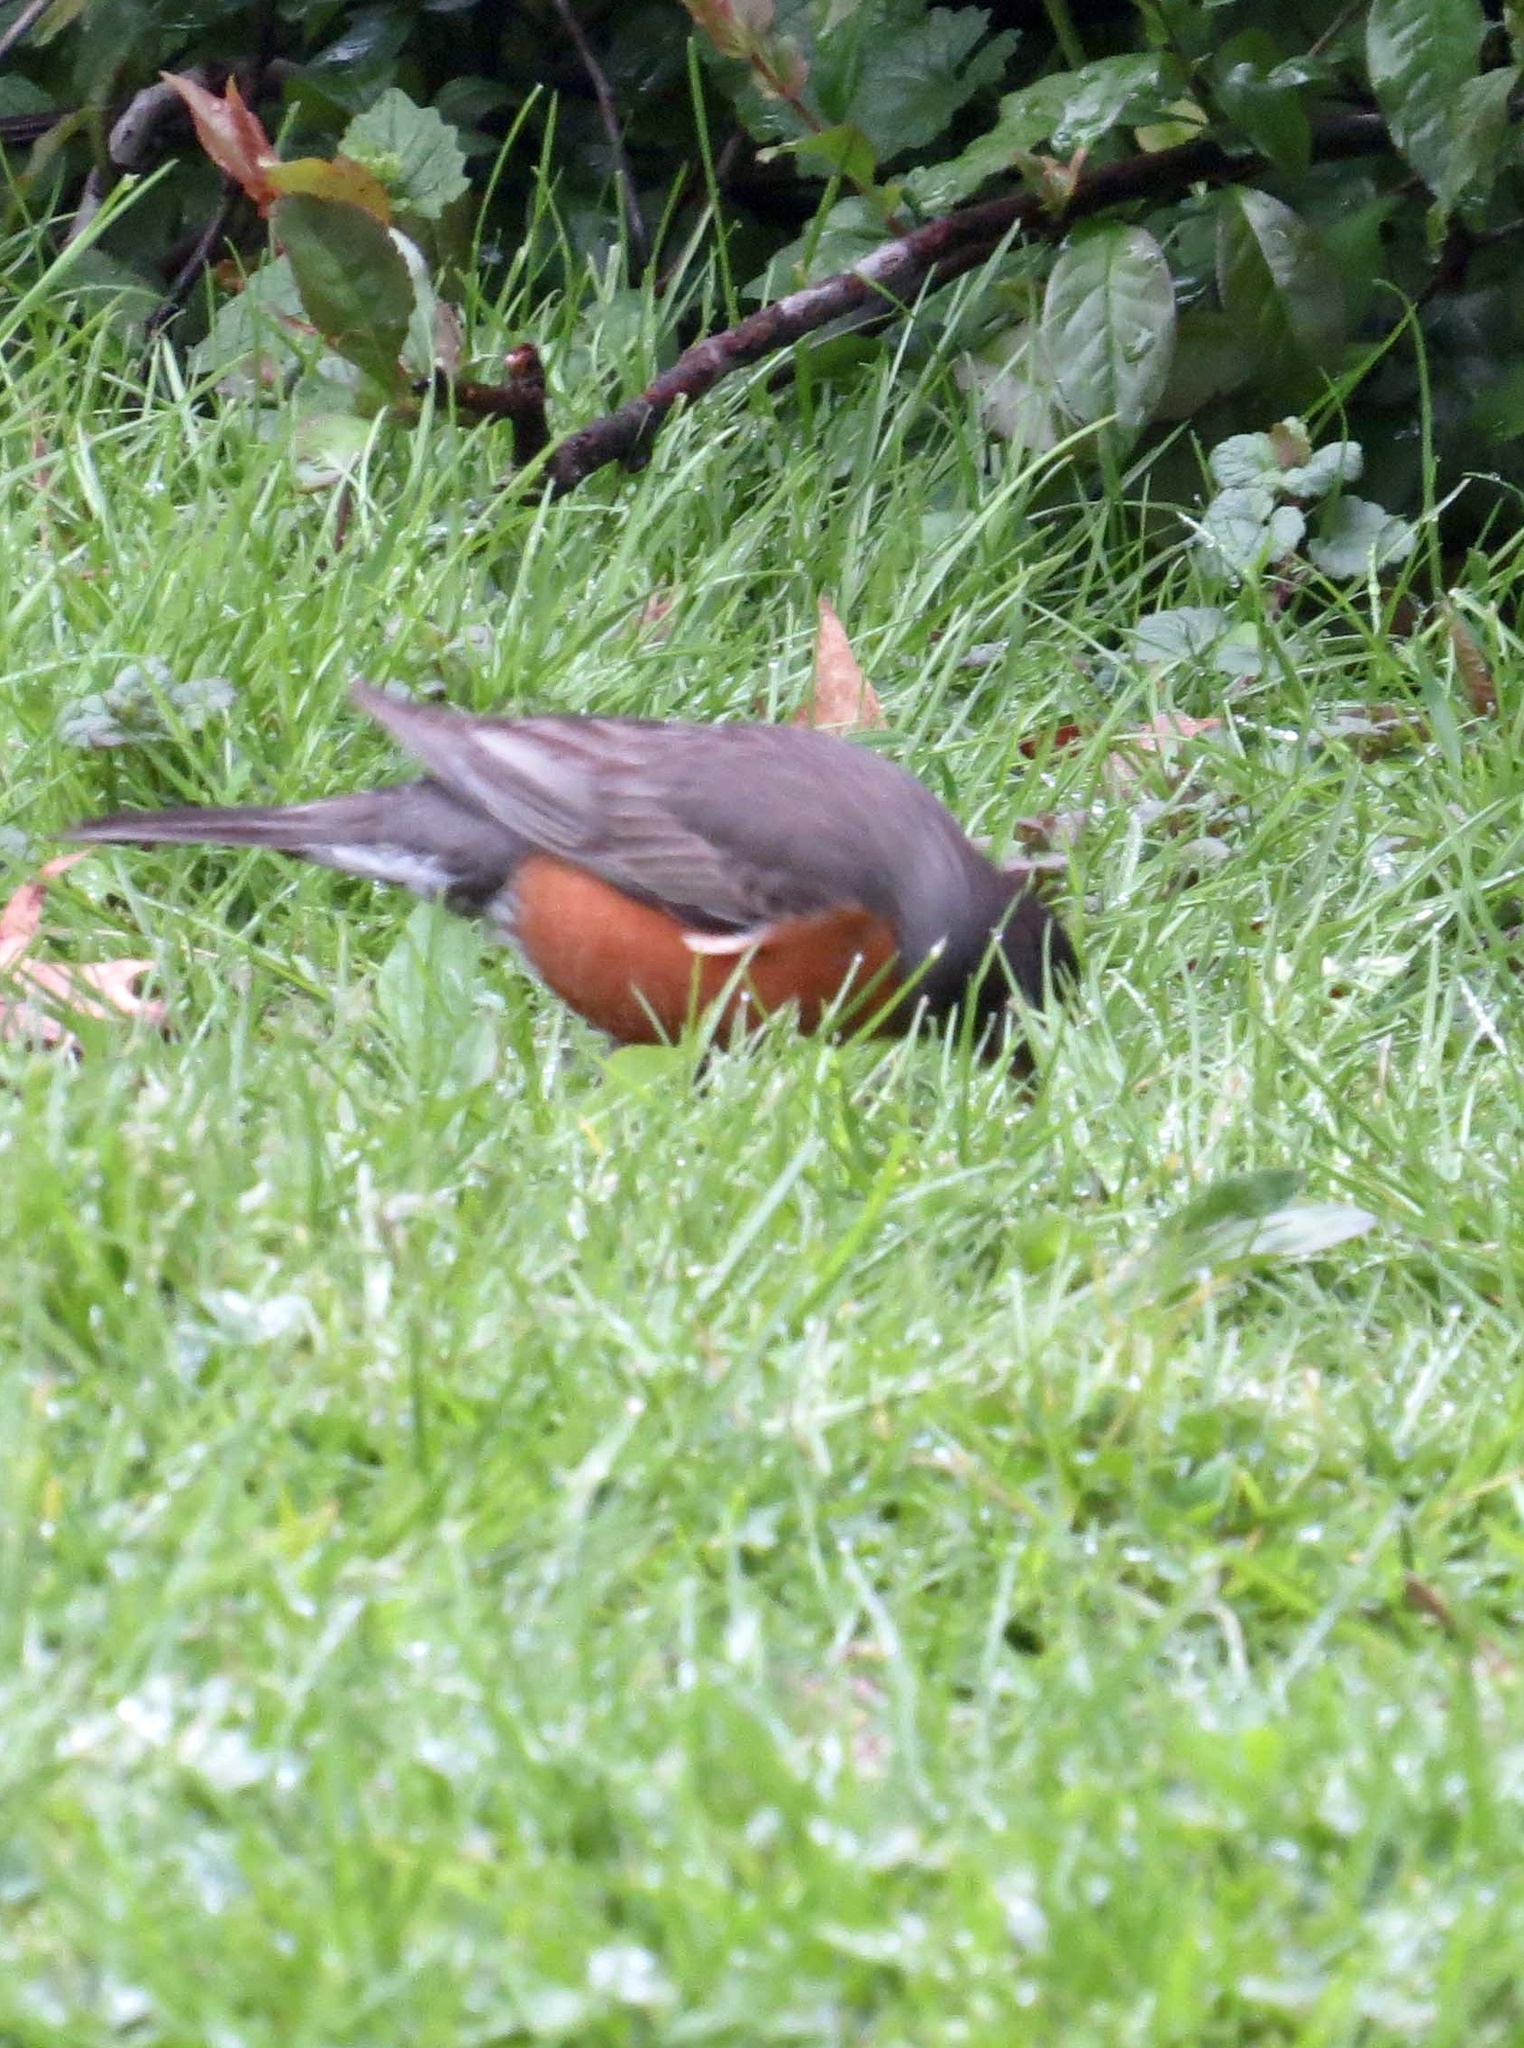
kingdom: Animalia
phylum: Chordata
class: Aves
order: Passeriformes
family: Turdidae
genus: Turdus
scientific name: Turdus migratorius
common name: American robin
